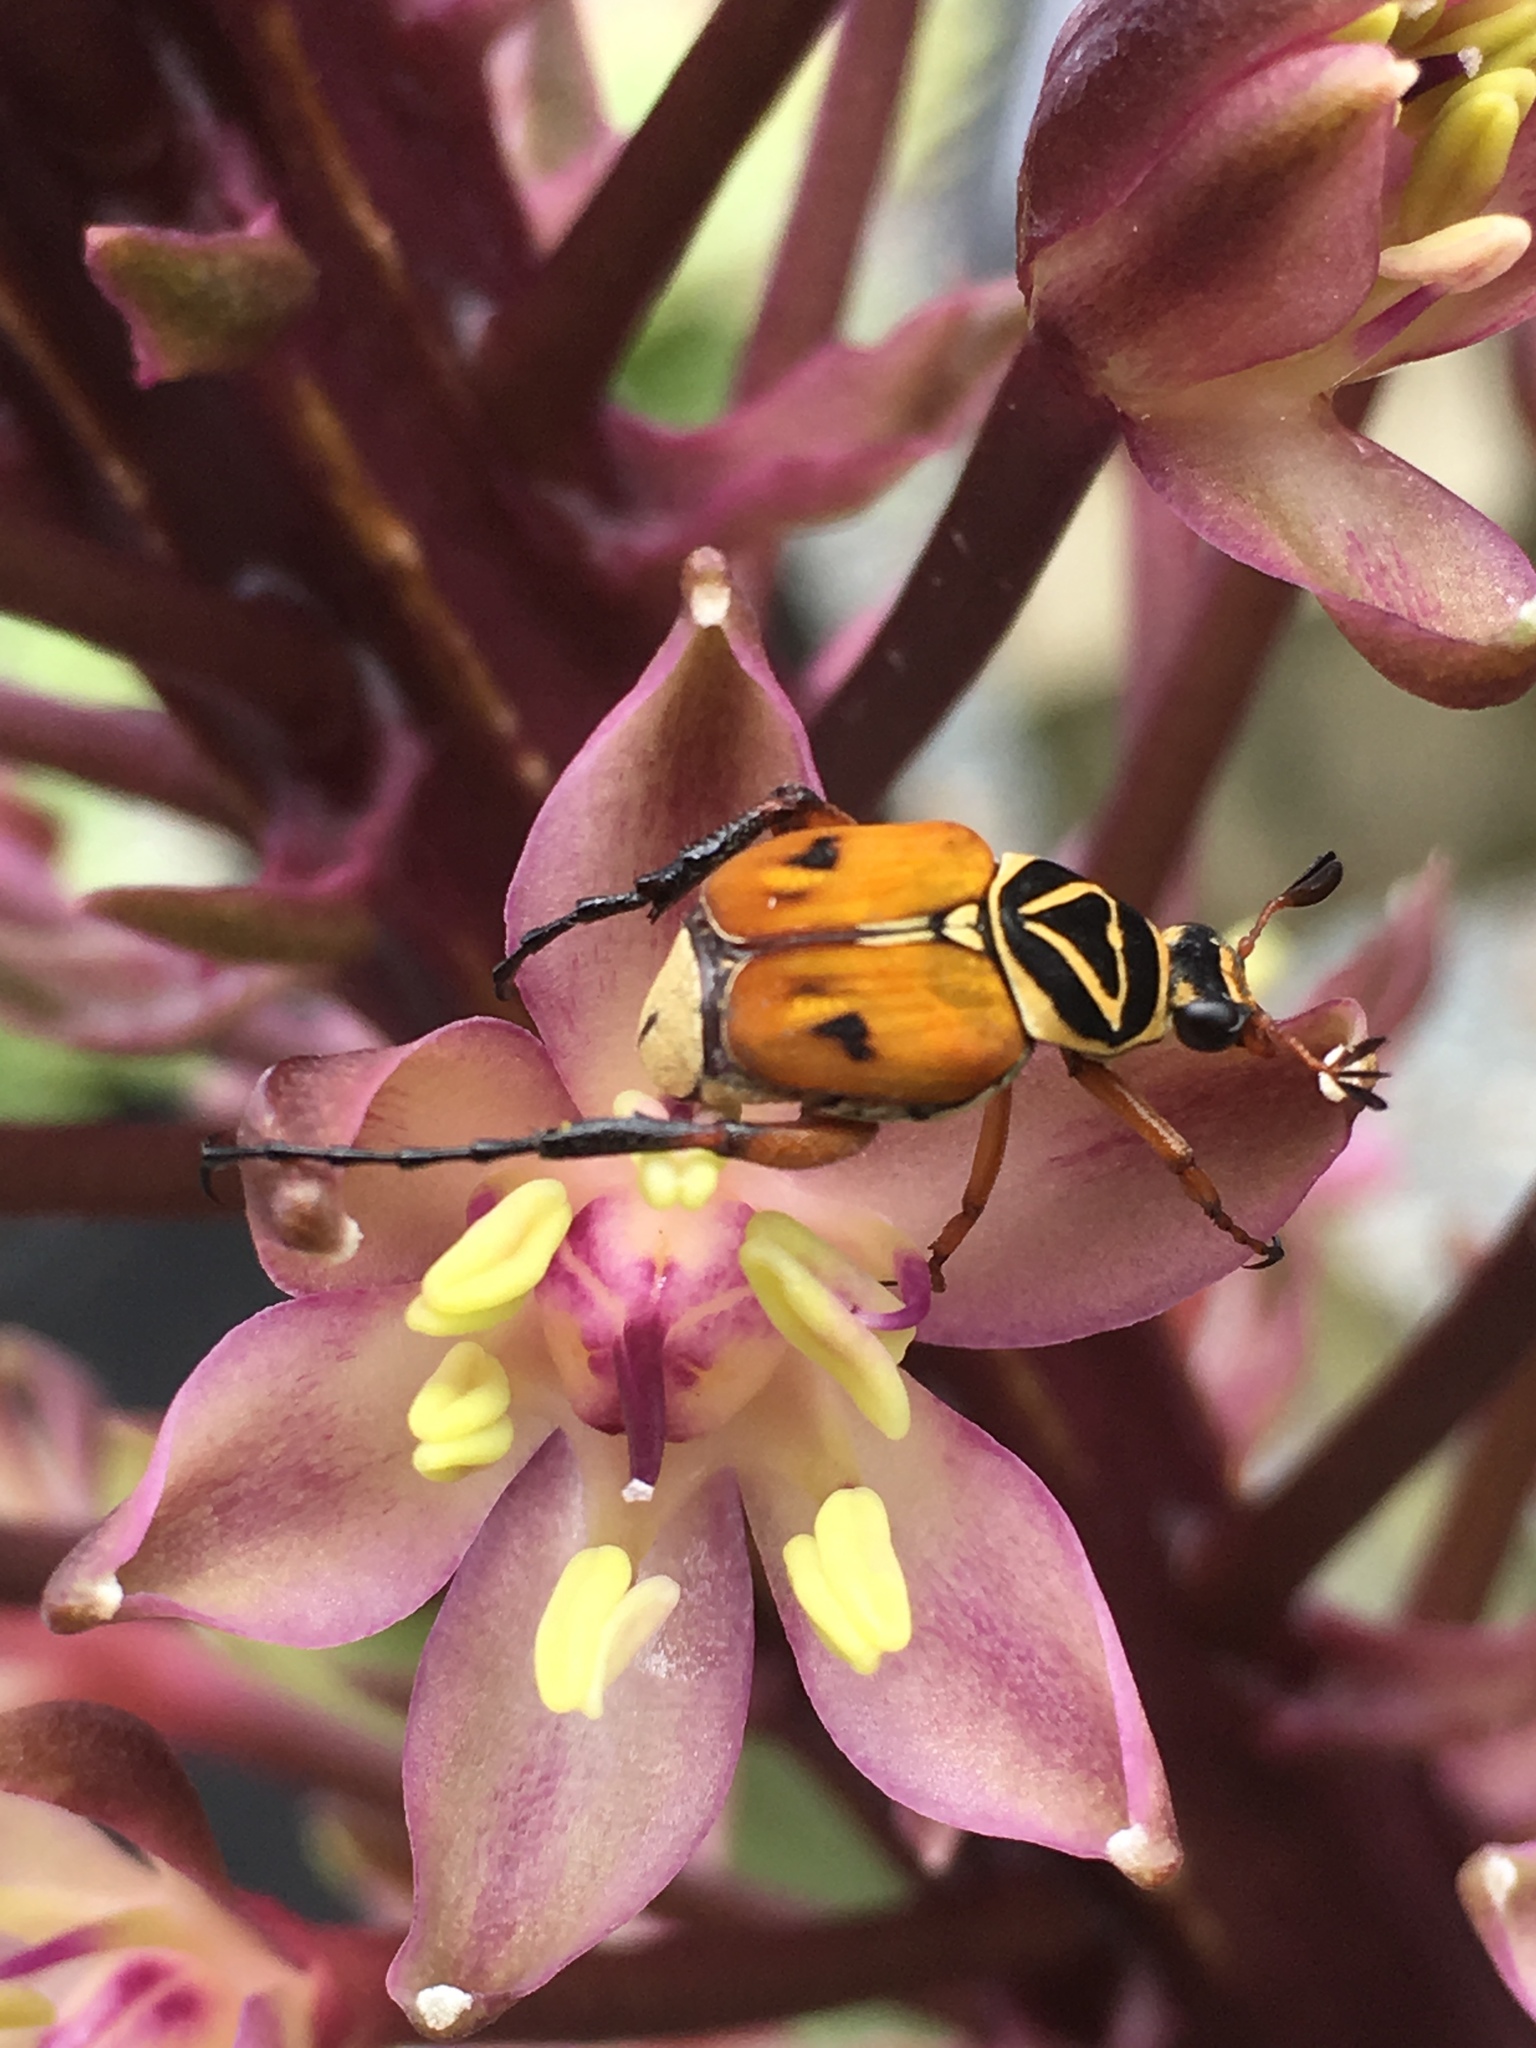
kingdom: Animalia
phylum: Arthropoda
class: Insecta
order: Coleoptera
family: Scarabaeidae
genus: Trigonopeltastes
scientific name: Trigonopeltastes delta
